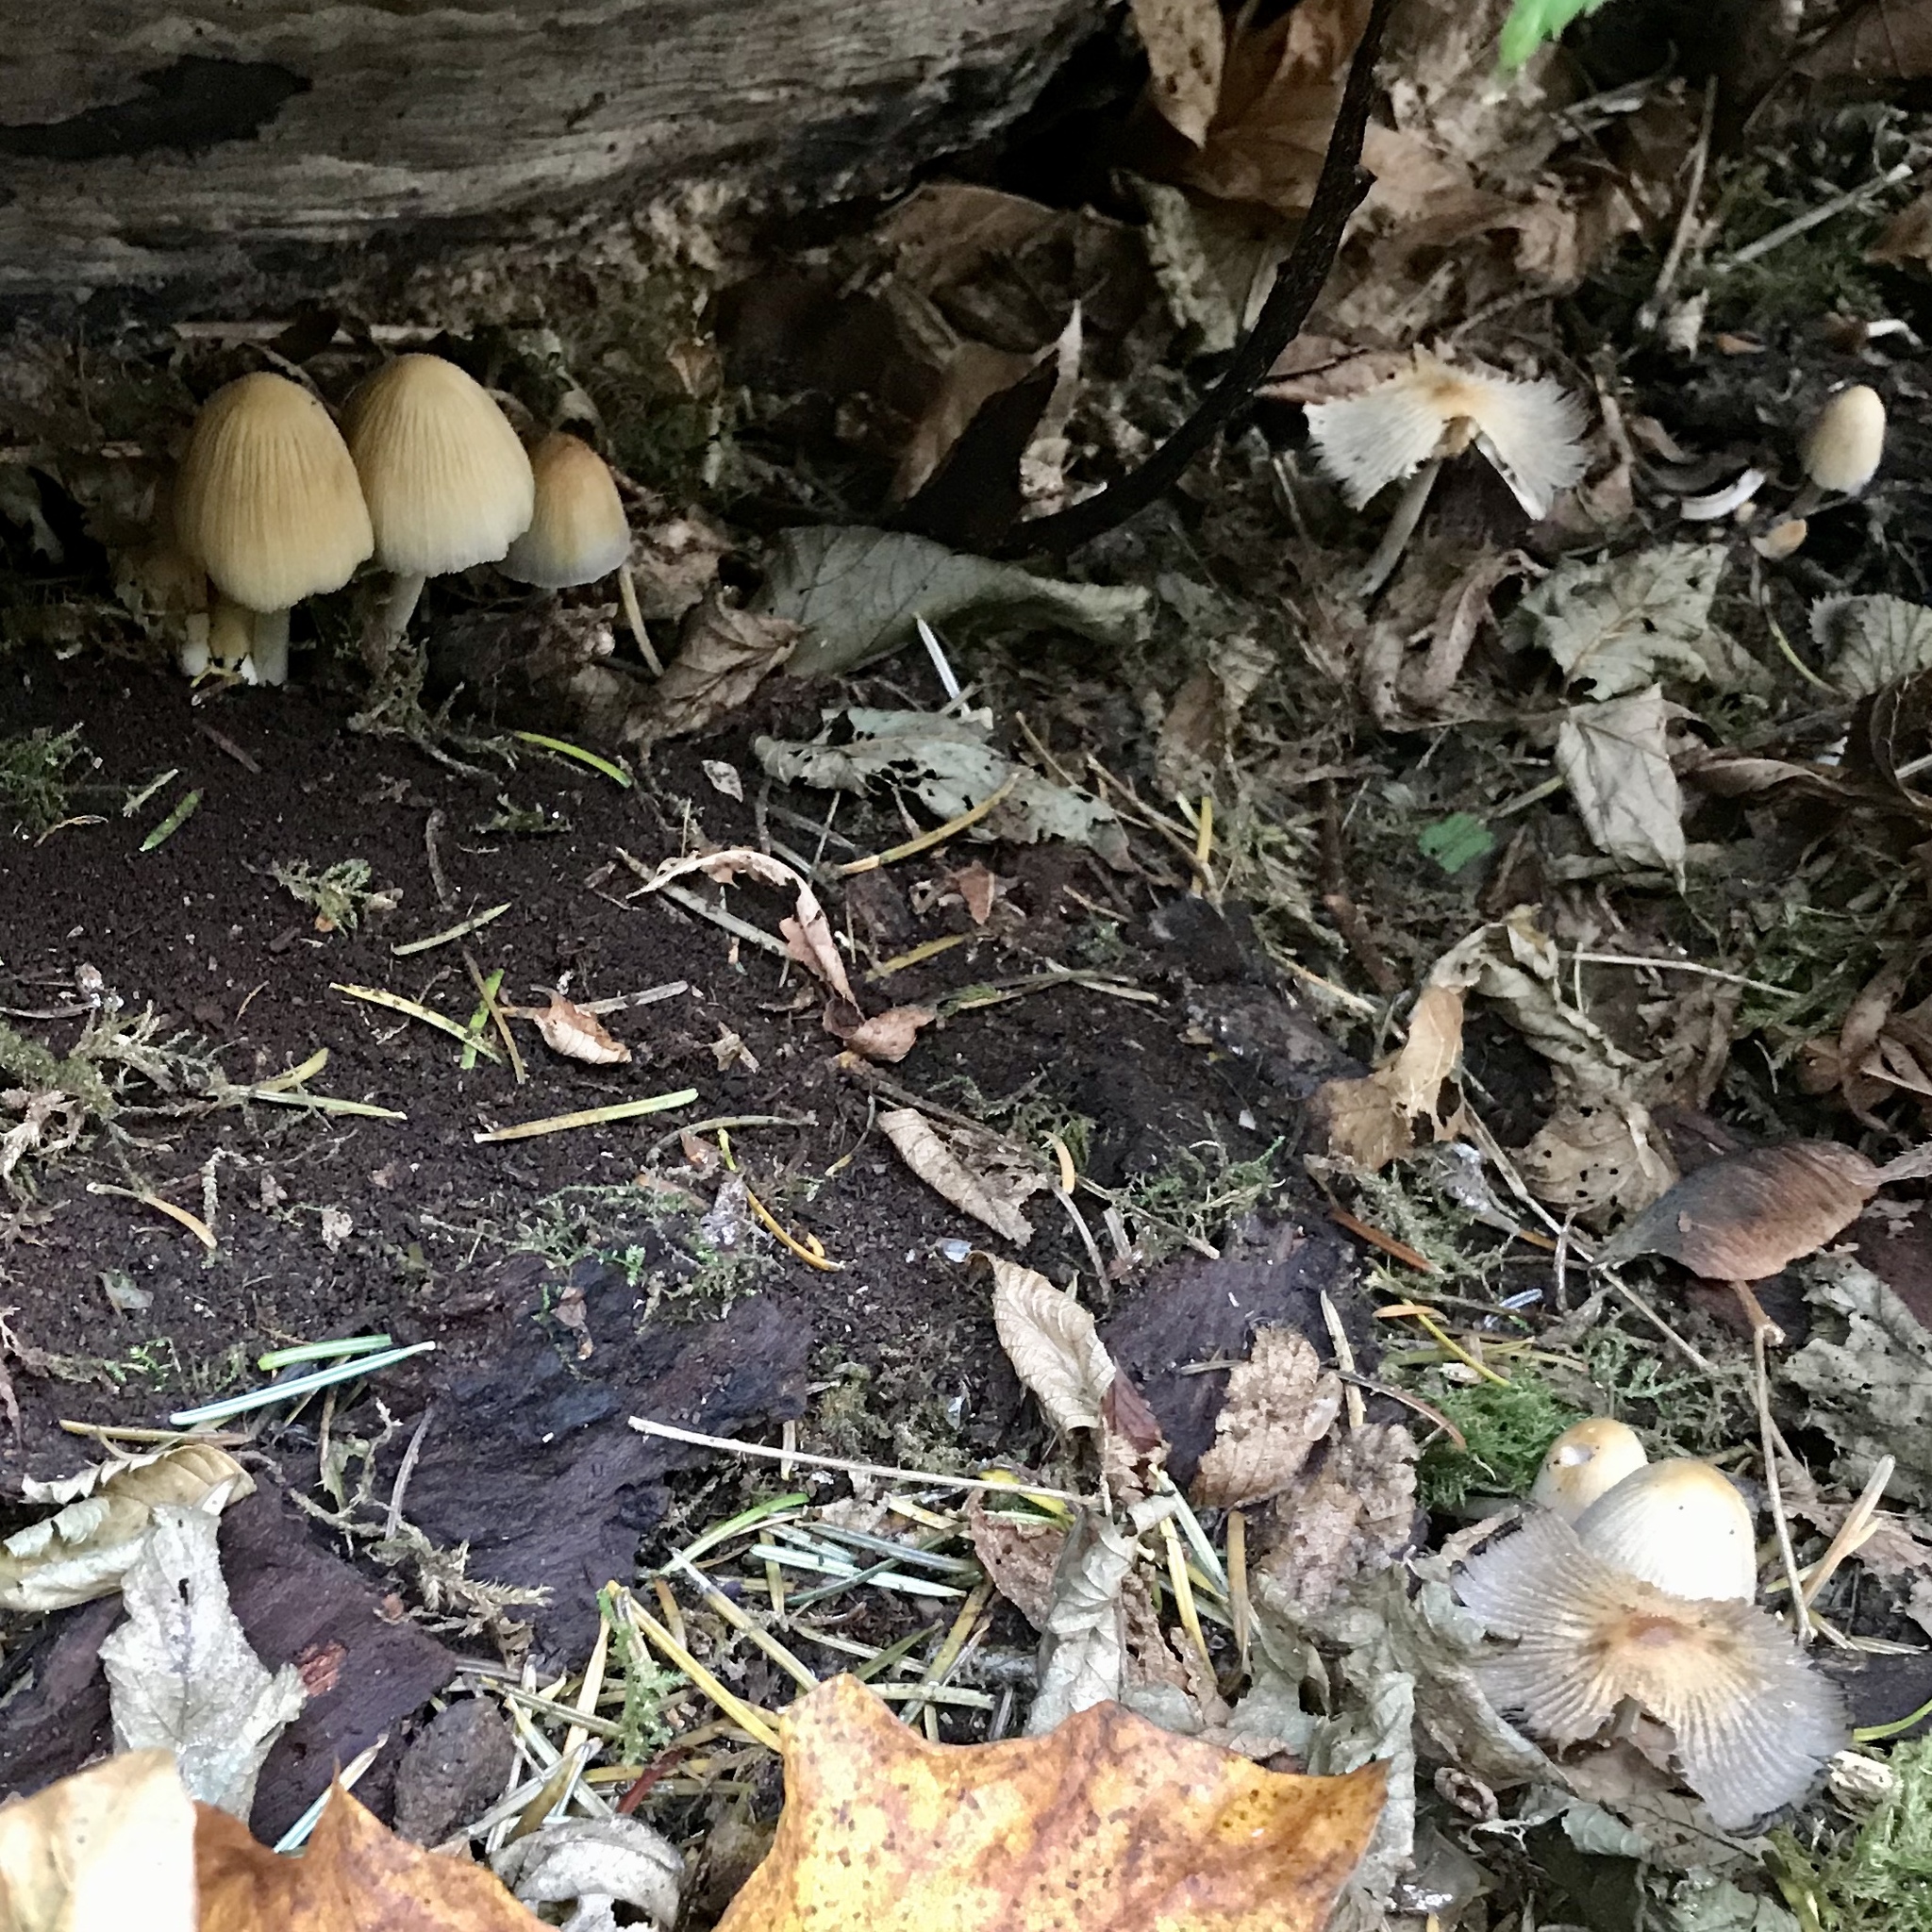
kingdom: Fungi
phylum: Basidiomycota
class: Agaricomycetes
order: Agaricales
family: Psathyrellaceae
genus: Coprinellus
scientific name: Coprinellus micaceus
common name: Glistening ink-cap
